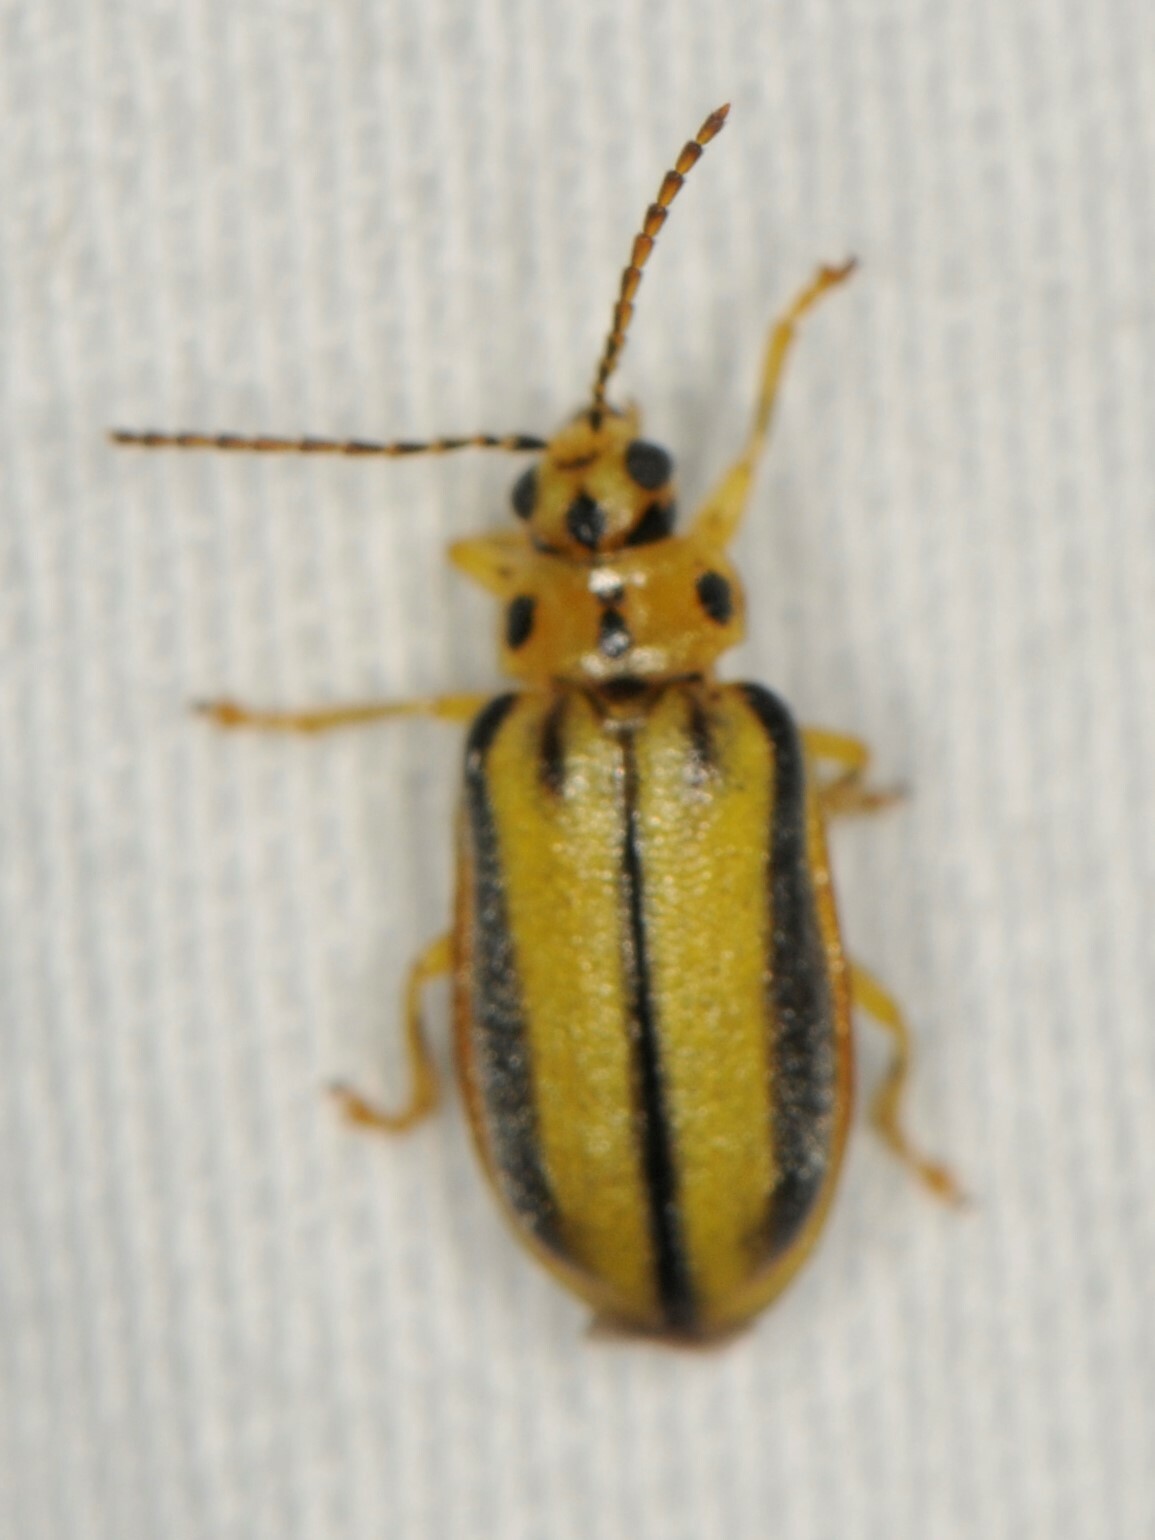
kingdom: Animalia
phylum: Arthropoda
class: Insecta
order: Coleoptera
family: Chrysomelidae
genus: Xanthogaleruca
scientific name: Xanthogaleruca luteola
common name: Elm leaf beetle
